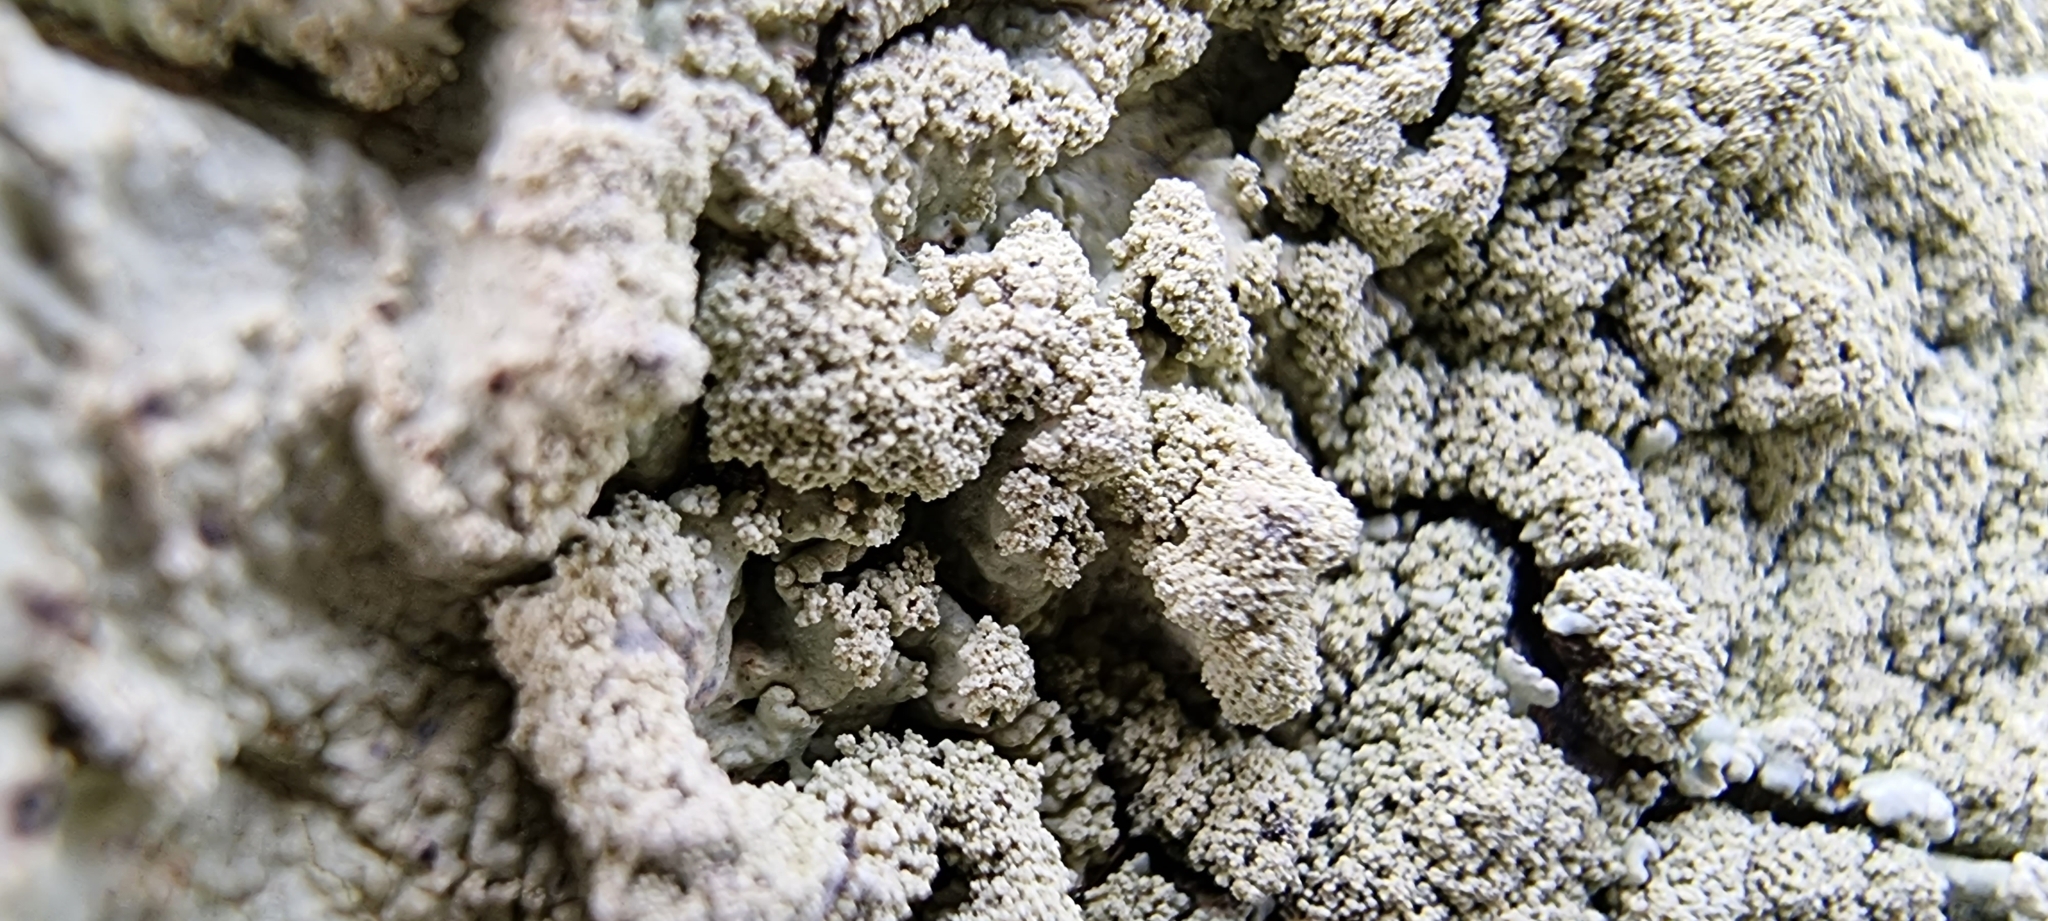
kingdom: Fungi
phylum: Ascomycota
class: Lecanoromycetes
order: Lecanorales
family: Parmeliaceae
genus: Flavoparmelia
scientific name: Flavoparmelia caperata
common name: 40-mile per hour lichen
